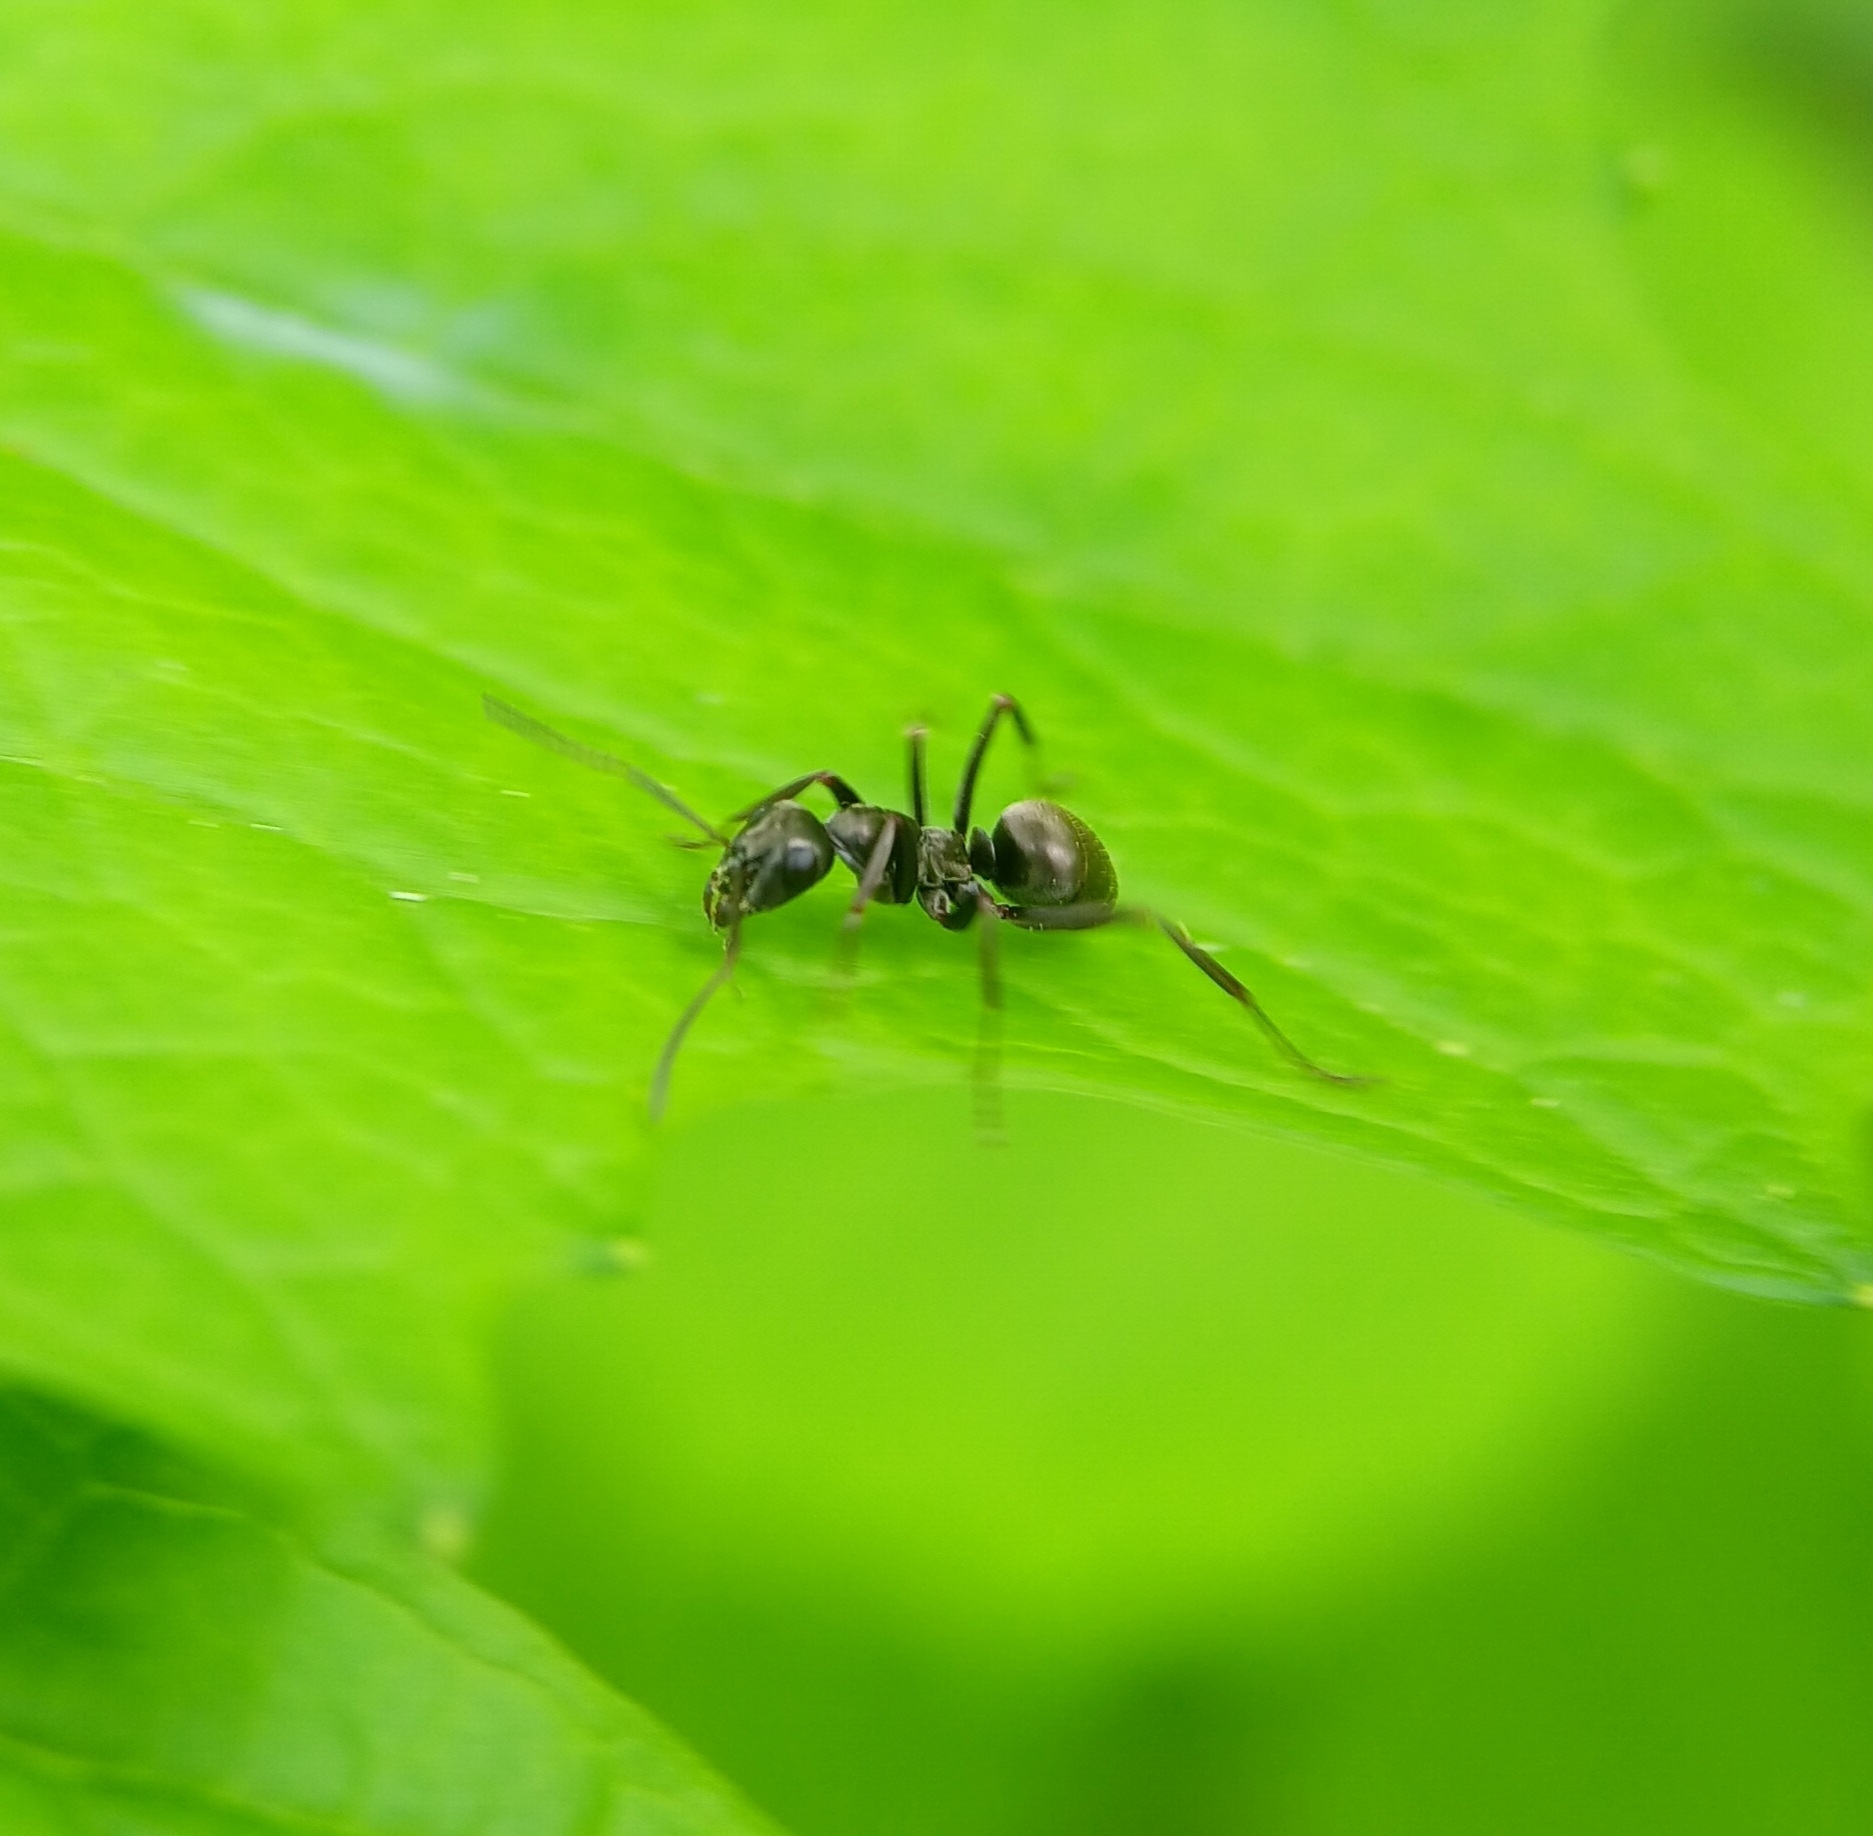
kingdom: Animalia
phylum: Arthropoda
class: Insecta
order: Hymenoptera
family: Formicidae
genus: Formica
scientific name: Formica
